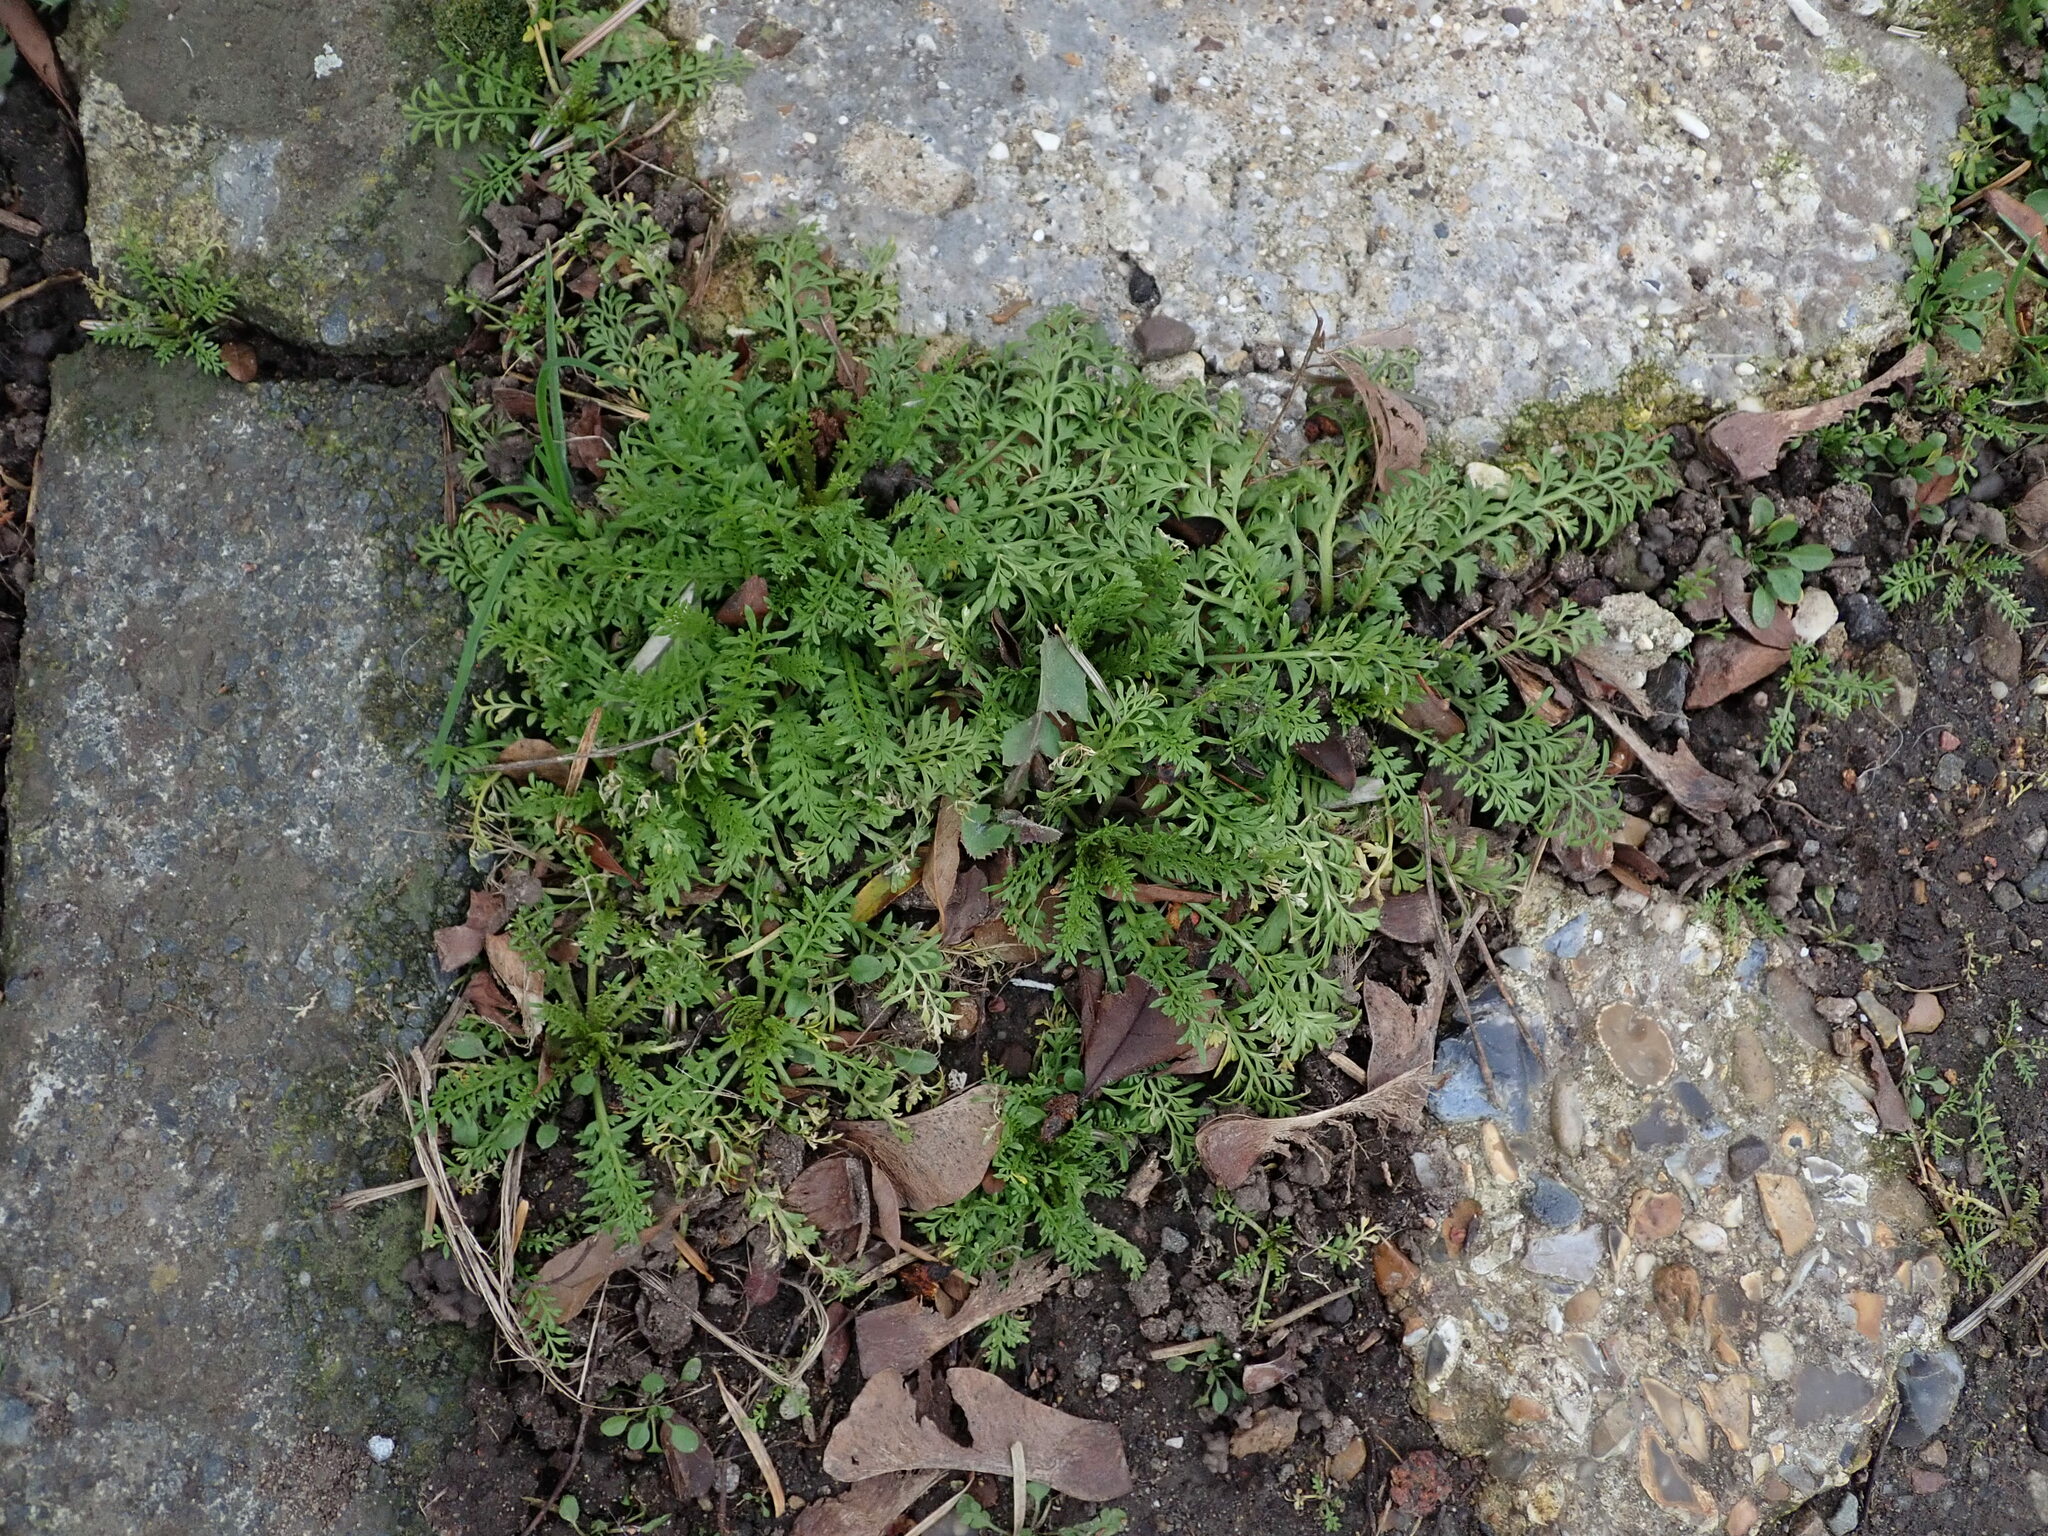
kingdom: Plantae
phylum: Tracheophyta
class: Magnoliopsida
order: Brassicales
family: Brassicaceae
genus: Lepidium
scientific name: Lepidium didymum
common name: Lesser swinecress
